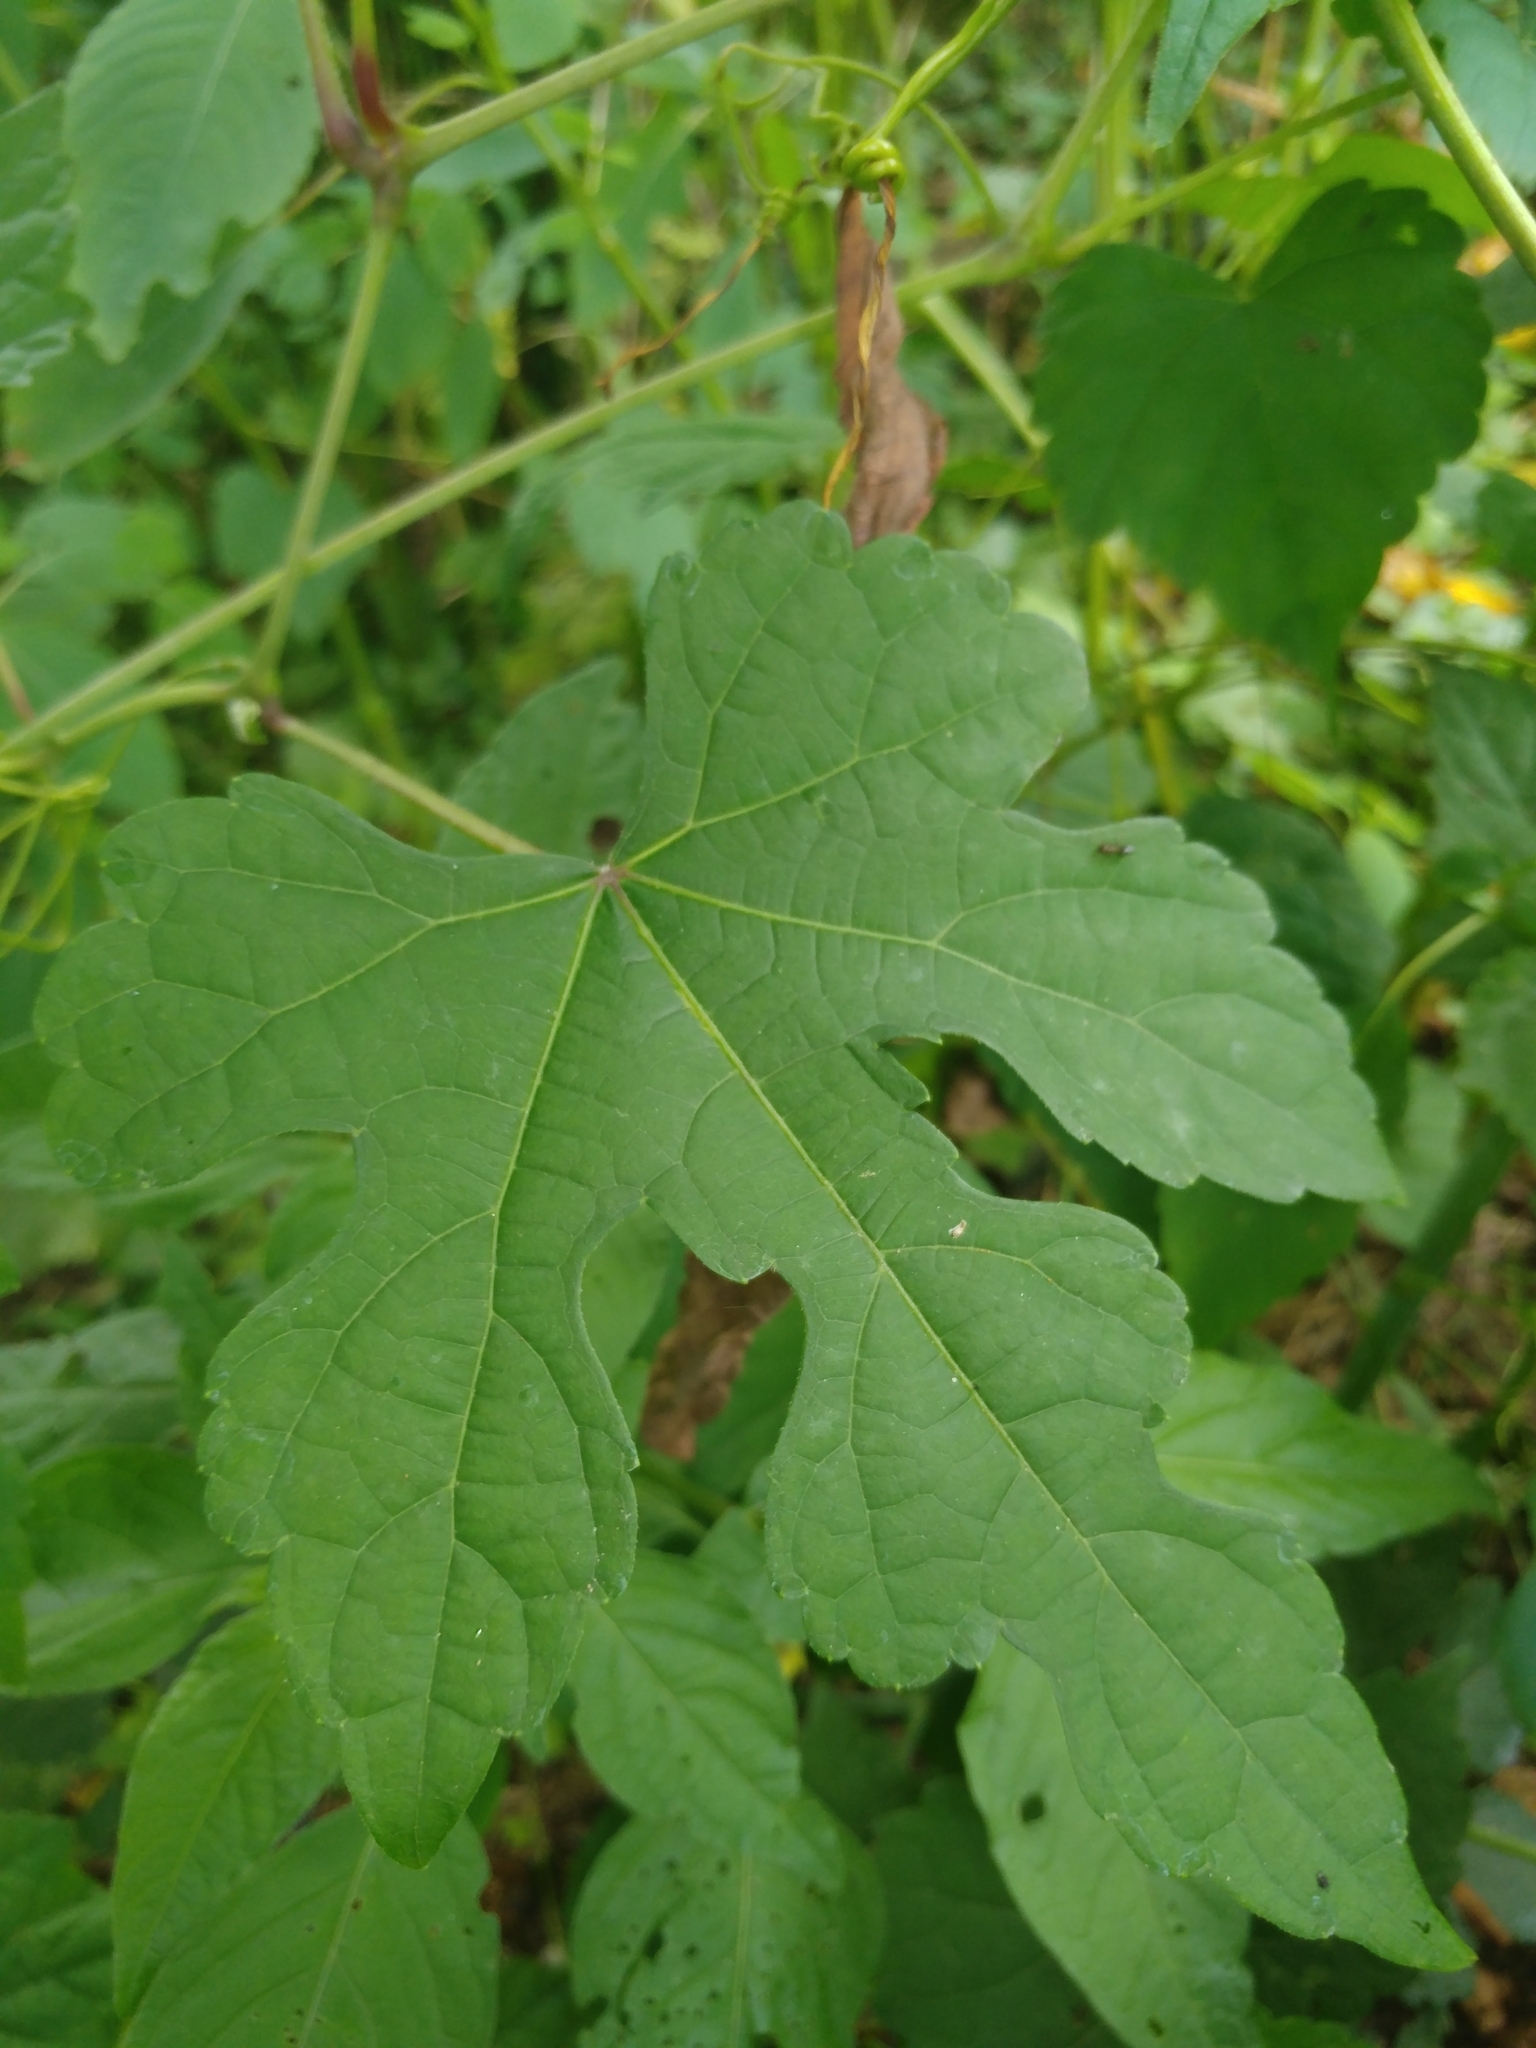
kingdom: Plantae
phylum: Tracheophyta
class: Magnoliopsida
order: Vitales
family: Vitaceae
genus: Ampelopsis
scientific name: Ampelopsis glandulosa
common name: Amur peppervine
